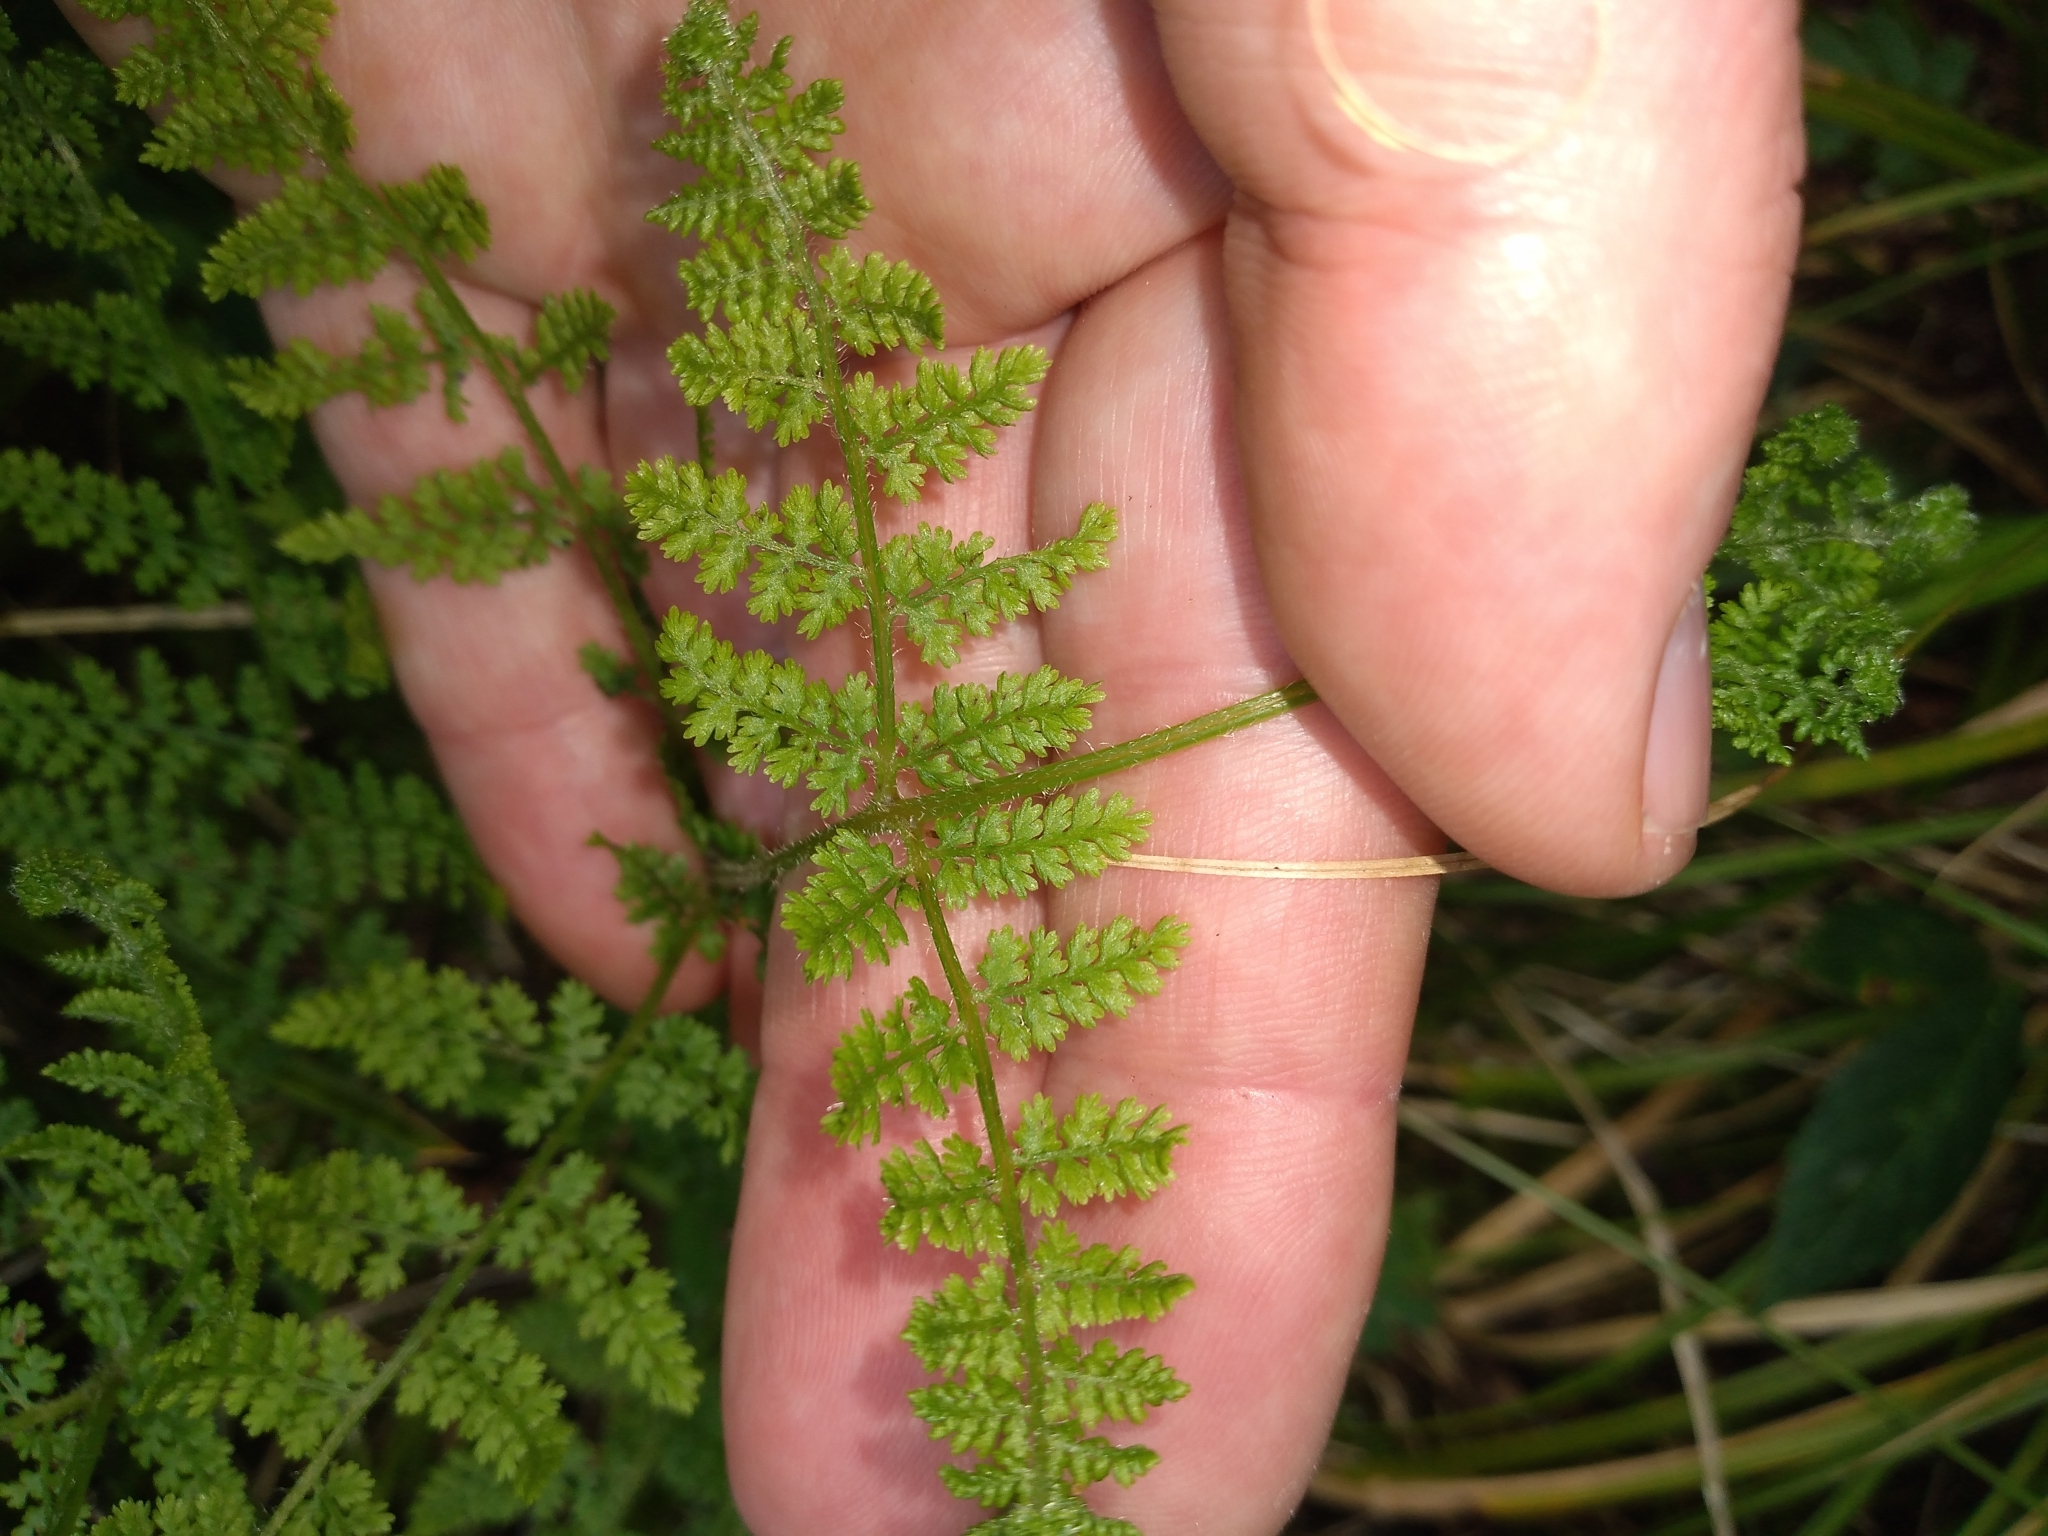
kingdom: Plantae
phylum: Tracheophyta
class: Polypodiopsida
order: Polypodiales
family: Dennstaedtiaceae
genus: Hypolepis
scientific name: Hypolepis millefolium
